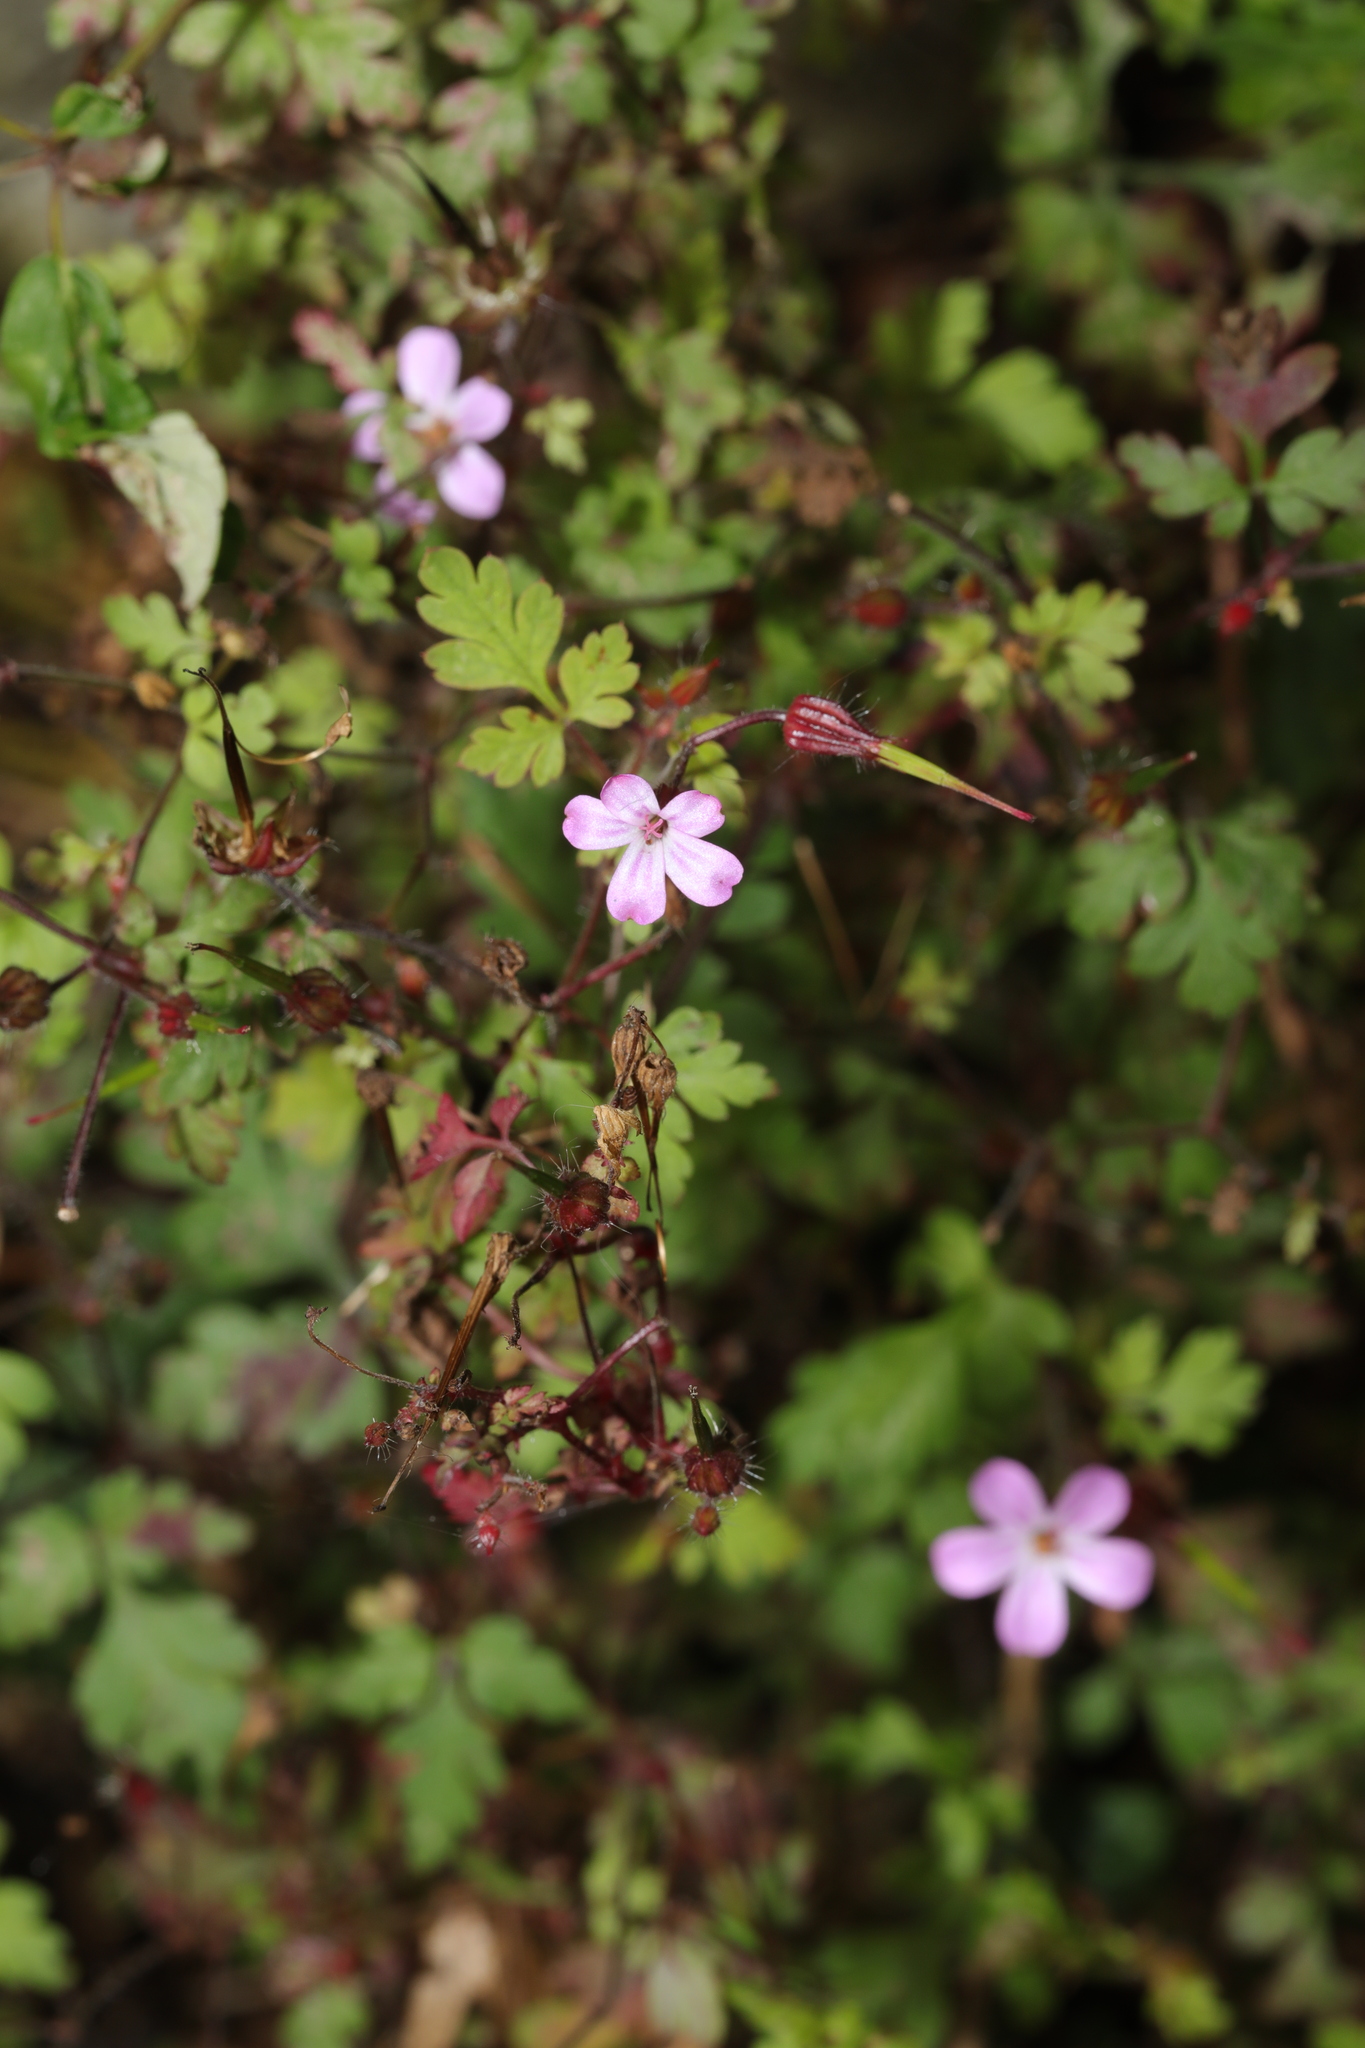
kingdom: Plantae
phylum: Tracheophyta
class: Magnoliopsida
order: Geraniales
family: Geraniaceae
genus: Geranium
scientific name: Geranium robertianum
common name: Herb-robert
